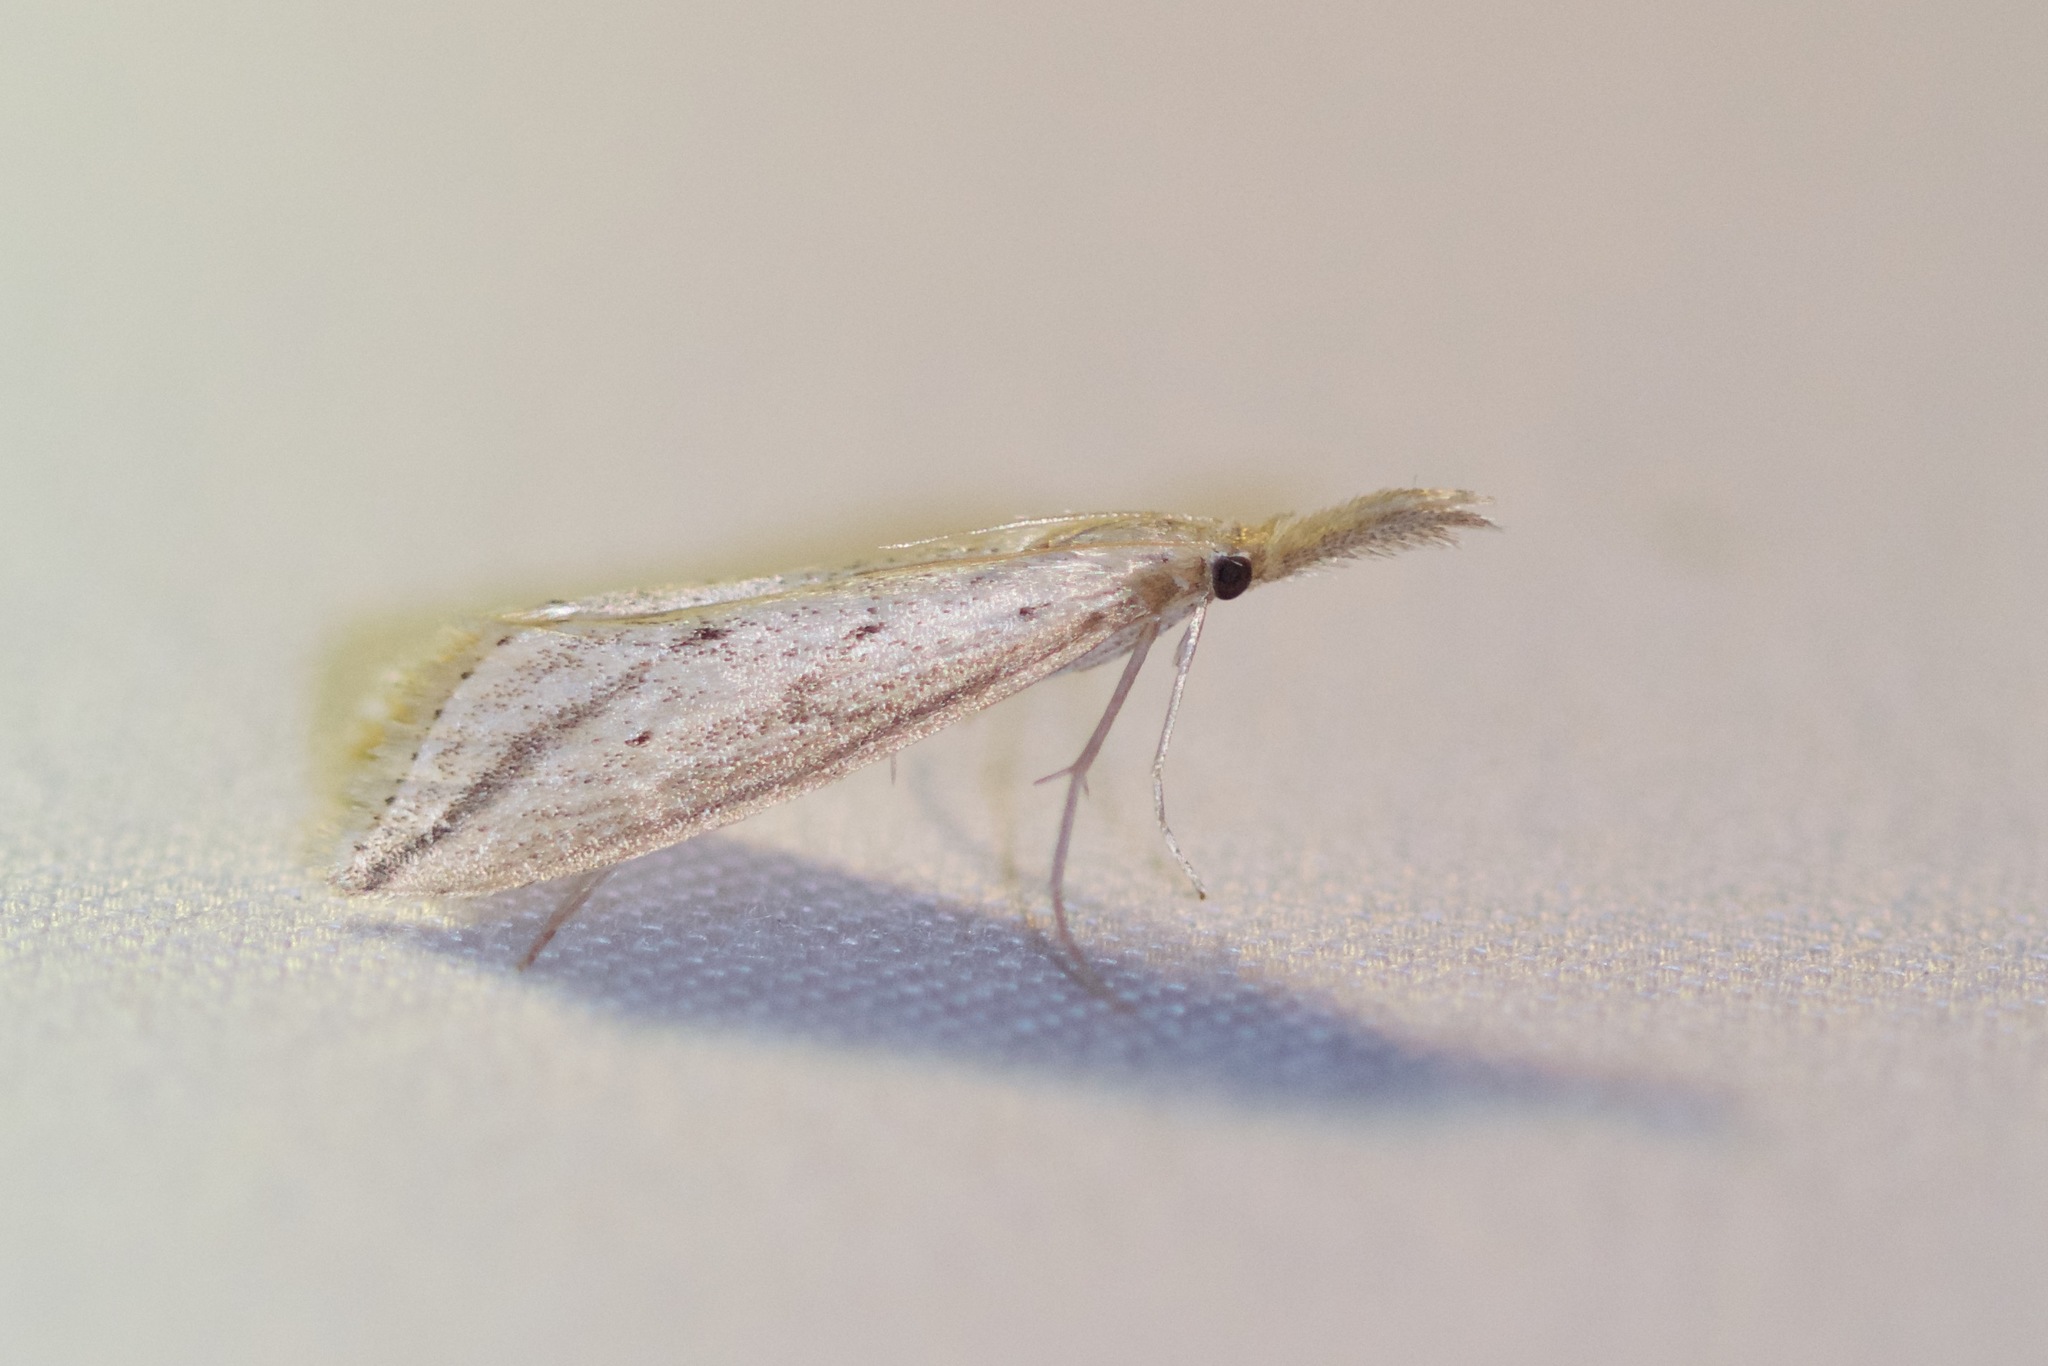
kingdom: Animalia
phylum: Arthropoda
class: Insecta
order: Lepidoptera
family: Crambidae
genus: Donacaula
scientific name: Donacaula longirostrallus
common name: Long-beaked donacaula moth
